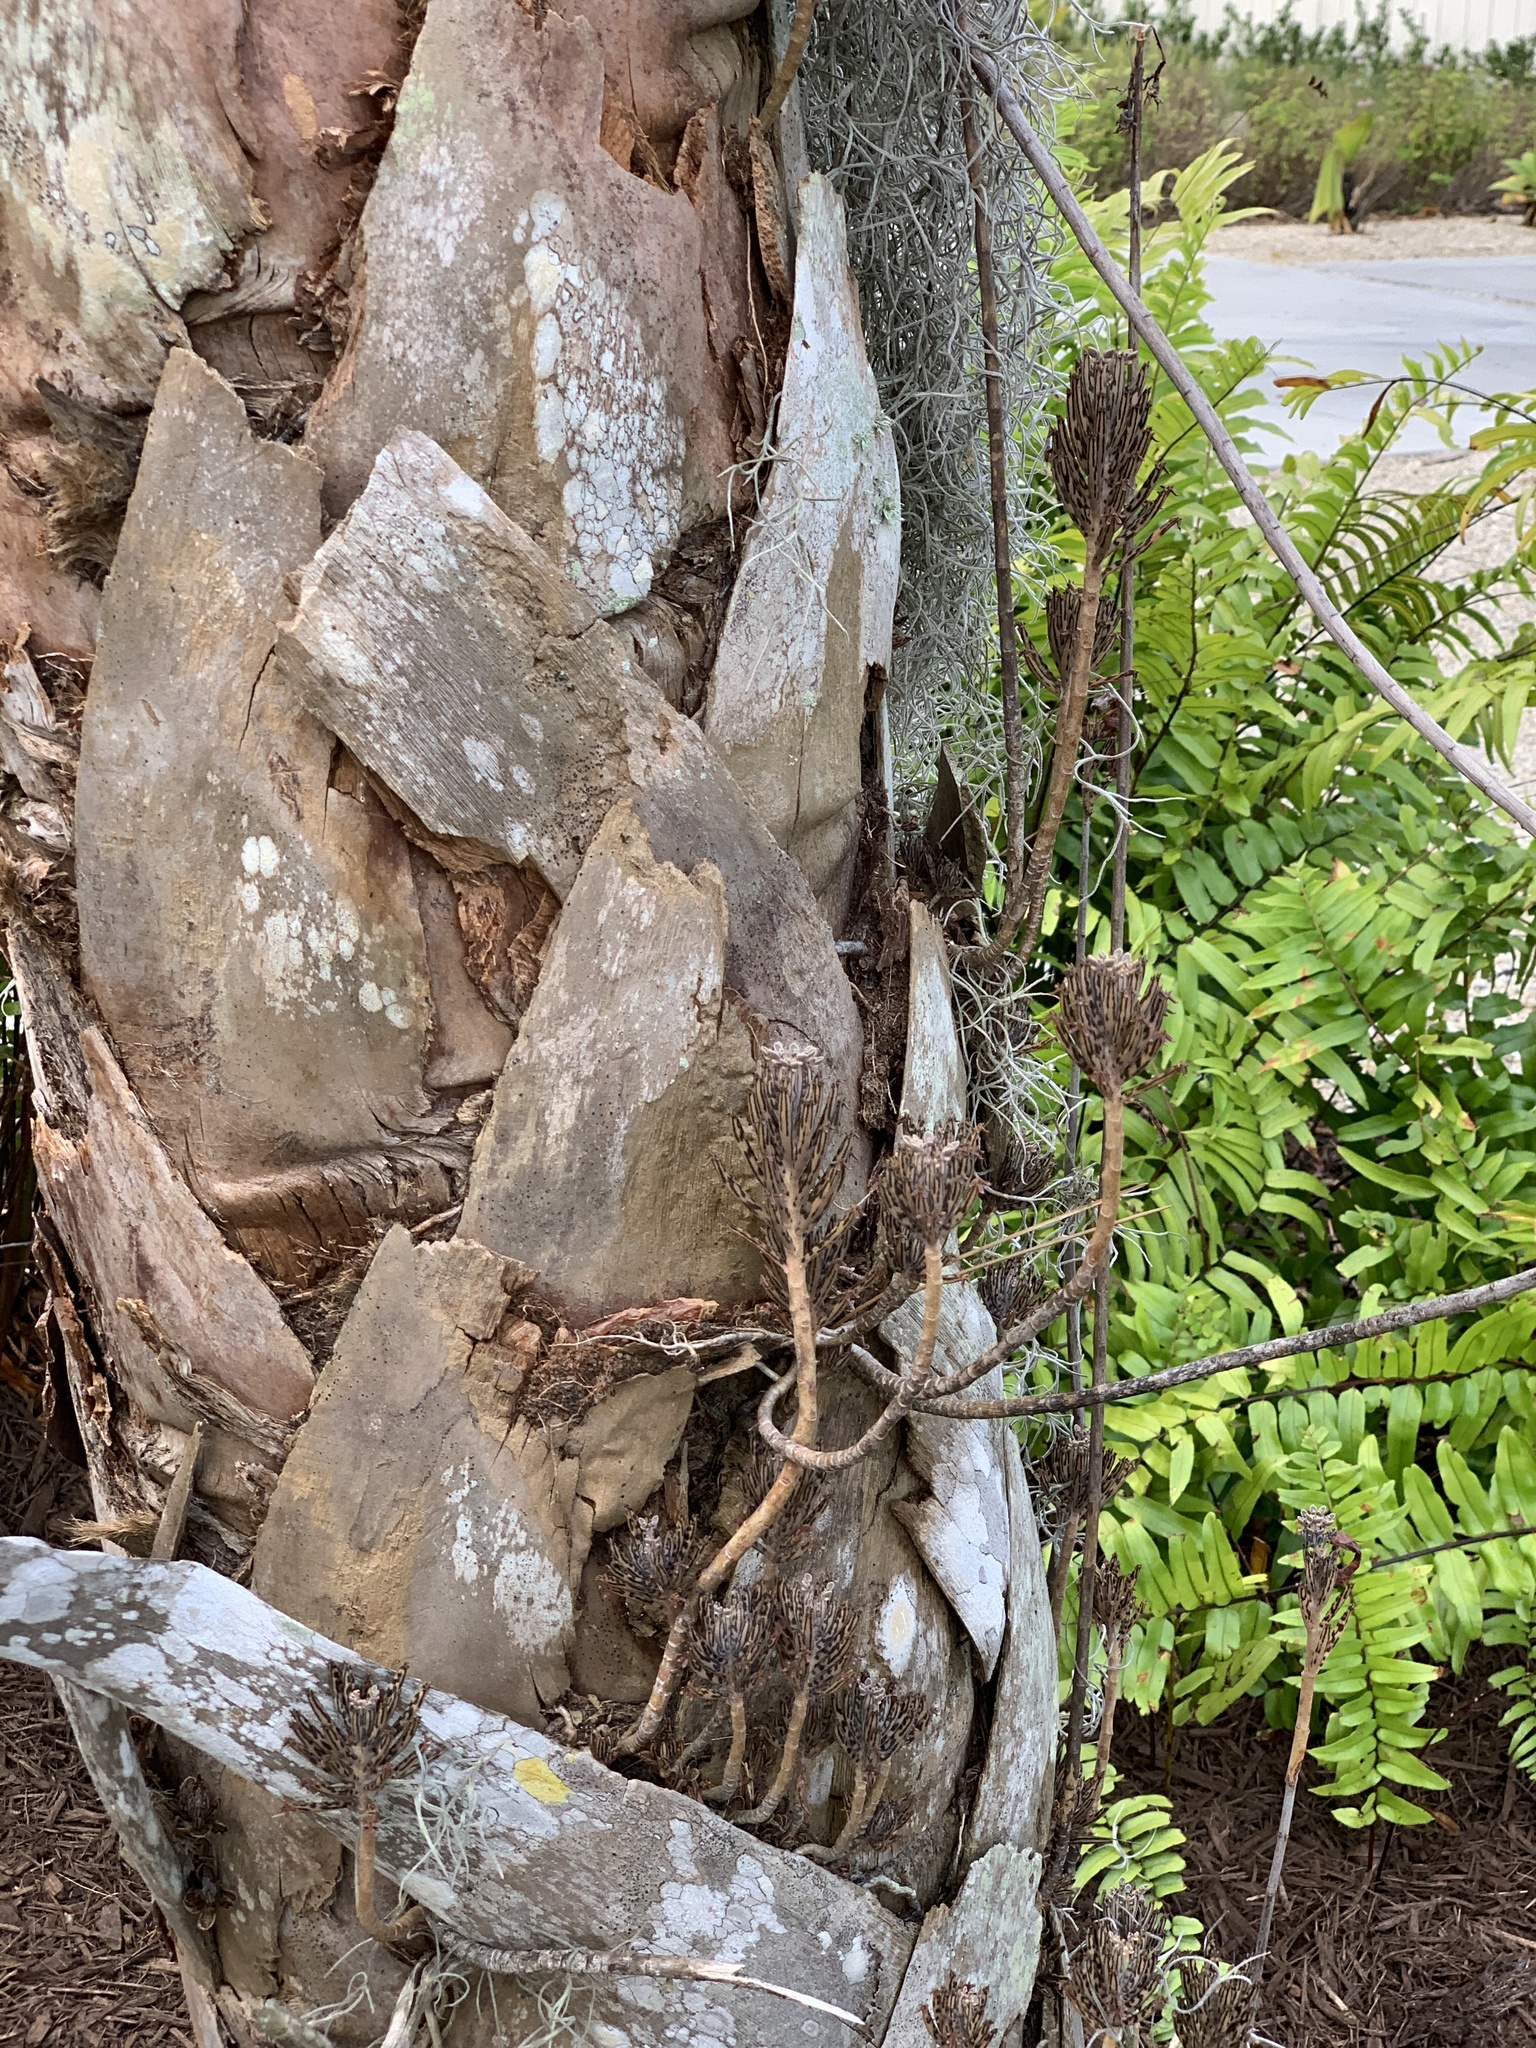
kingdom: Plantae
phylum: Tracheophyta
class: Magnoliopsida
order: Saxifragales
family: Crassulaceae
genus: Kalanchoe
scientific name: Kalanchoe delagoensis
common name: Chandelier plant
